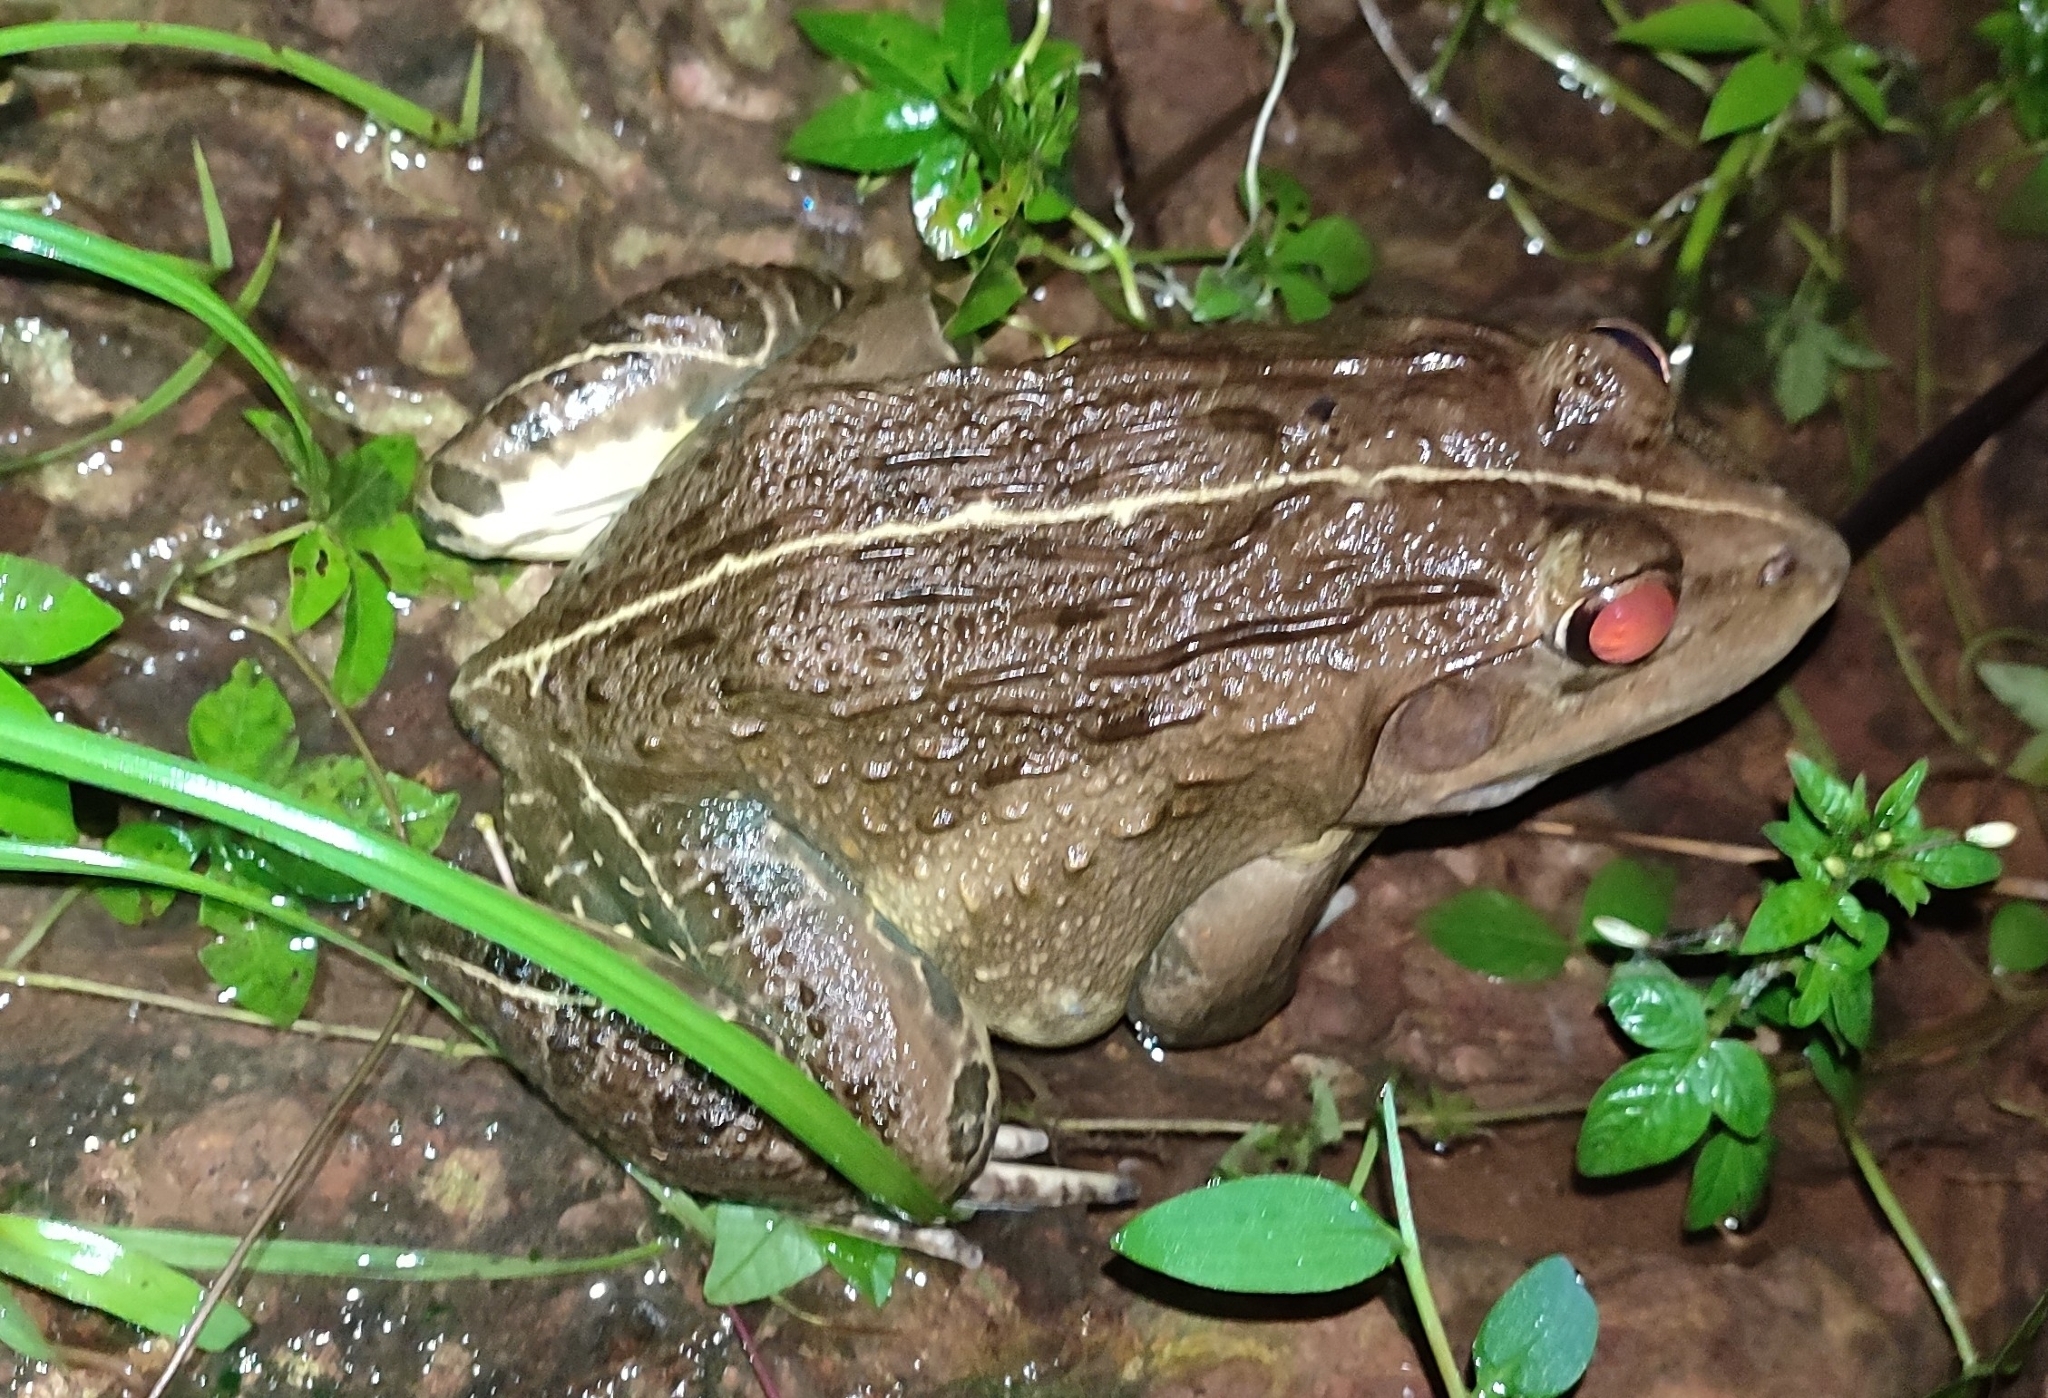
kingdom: Animalia
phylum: Chordata
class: Amphibia
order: Anura
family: Dicroglossidae
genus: Hoplobatrachus
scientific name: Hoplobatrachus tigerinus
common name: Indian bullfrog
